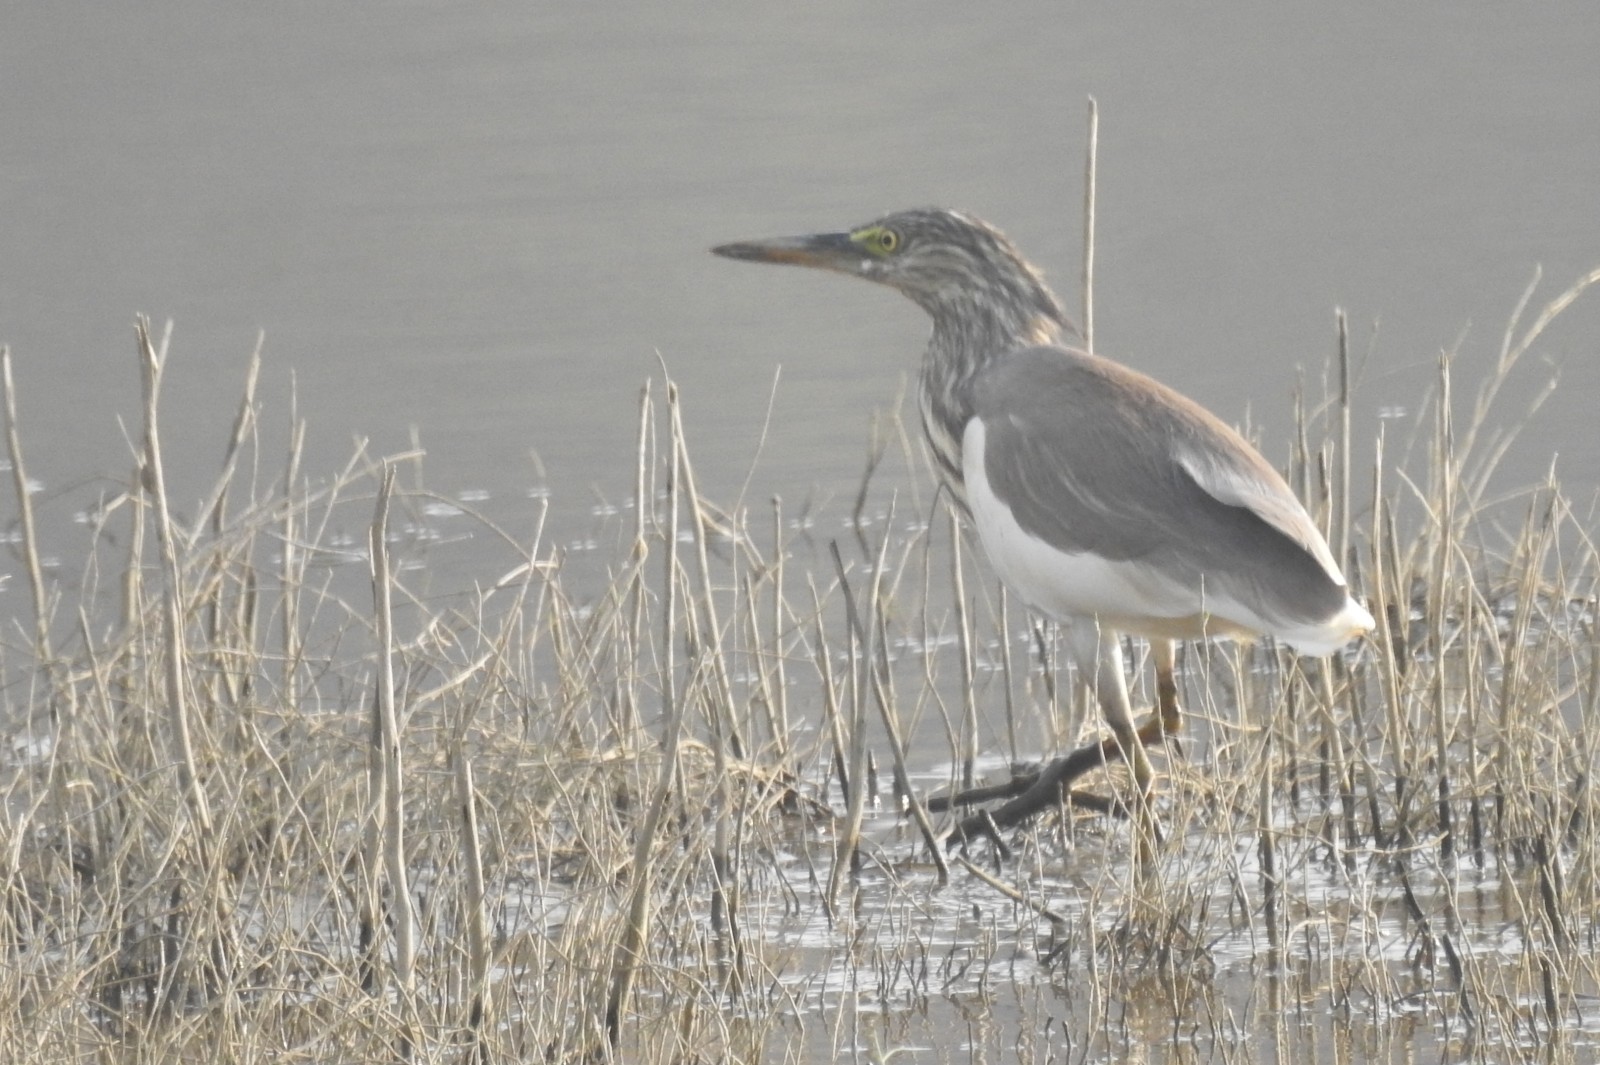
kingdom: Animalia
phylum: Chordata
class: Aves
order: Pelecaniformes
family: Ardeidae
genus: Ardeola
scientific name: Ardeola grayii
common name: Indian pond heron
